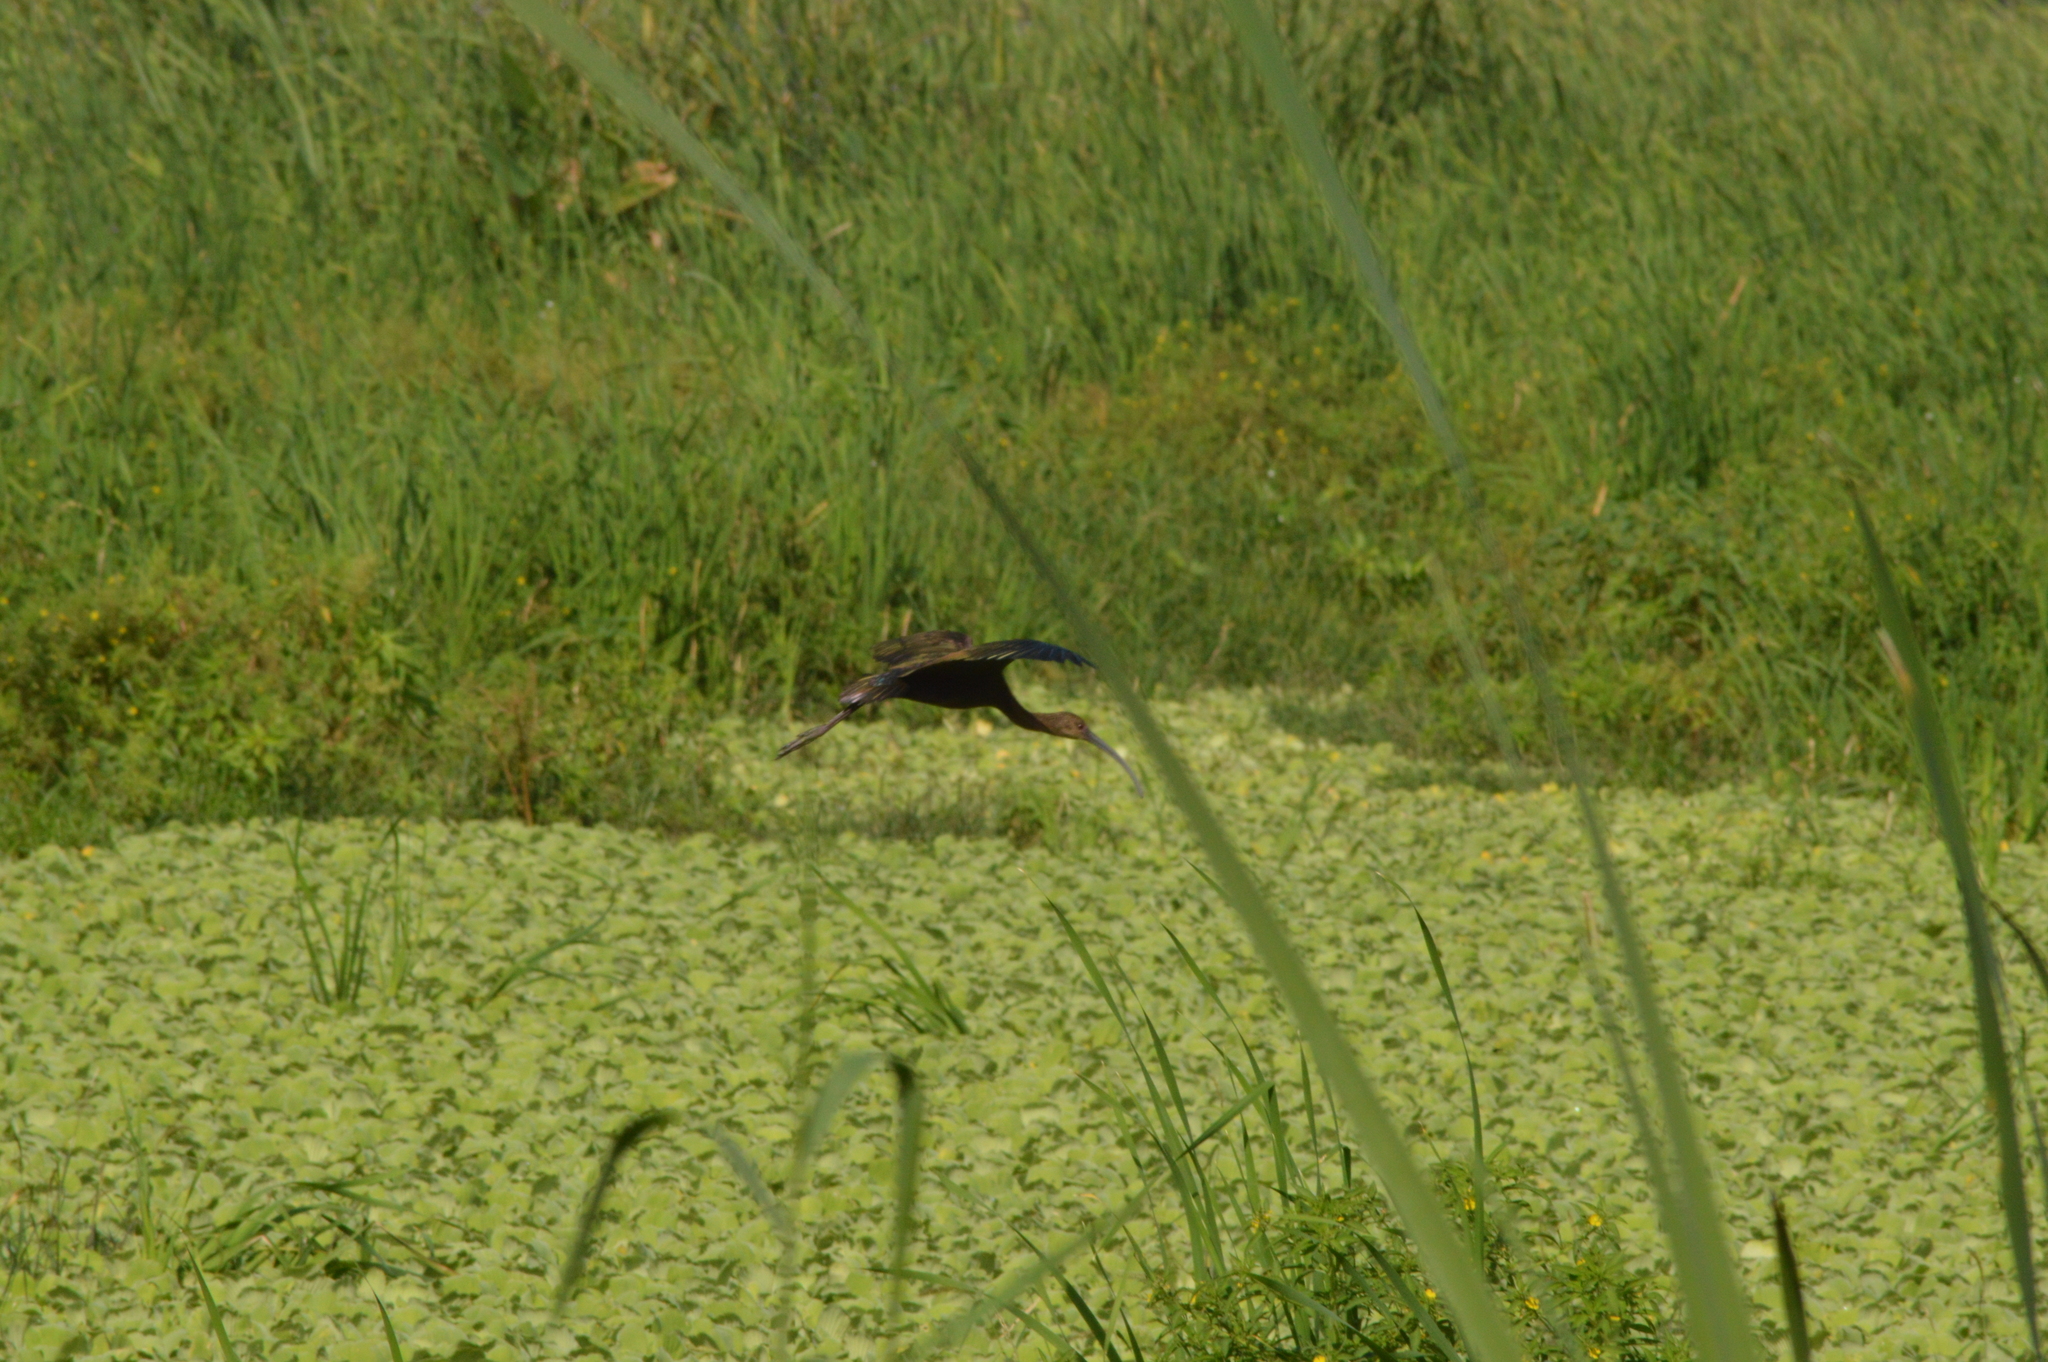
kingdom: Animalia
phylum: Chordata
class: Aves
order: Pelecaniformes
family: Threskiornithidae
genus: Plegadis
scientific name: Plegadis chihi
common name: White-faced ibis
